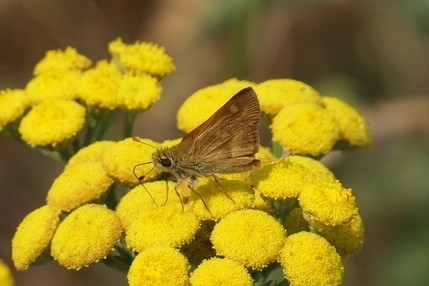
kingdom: Animalia
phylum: Arthropoda
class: Insecta
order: Lepidoptera
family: Hesperiidae
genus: Ochlodes
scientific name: Ochlodes sylvanoides
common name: Woodland skipper
